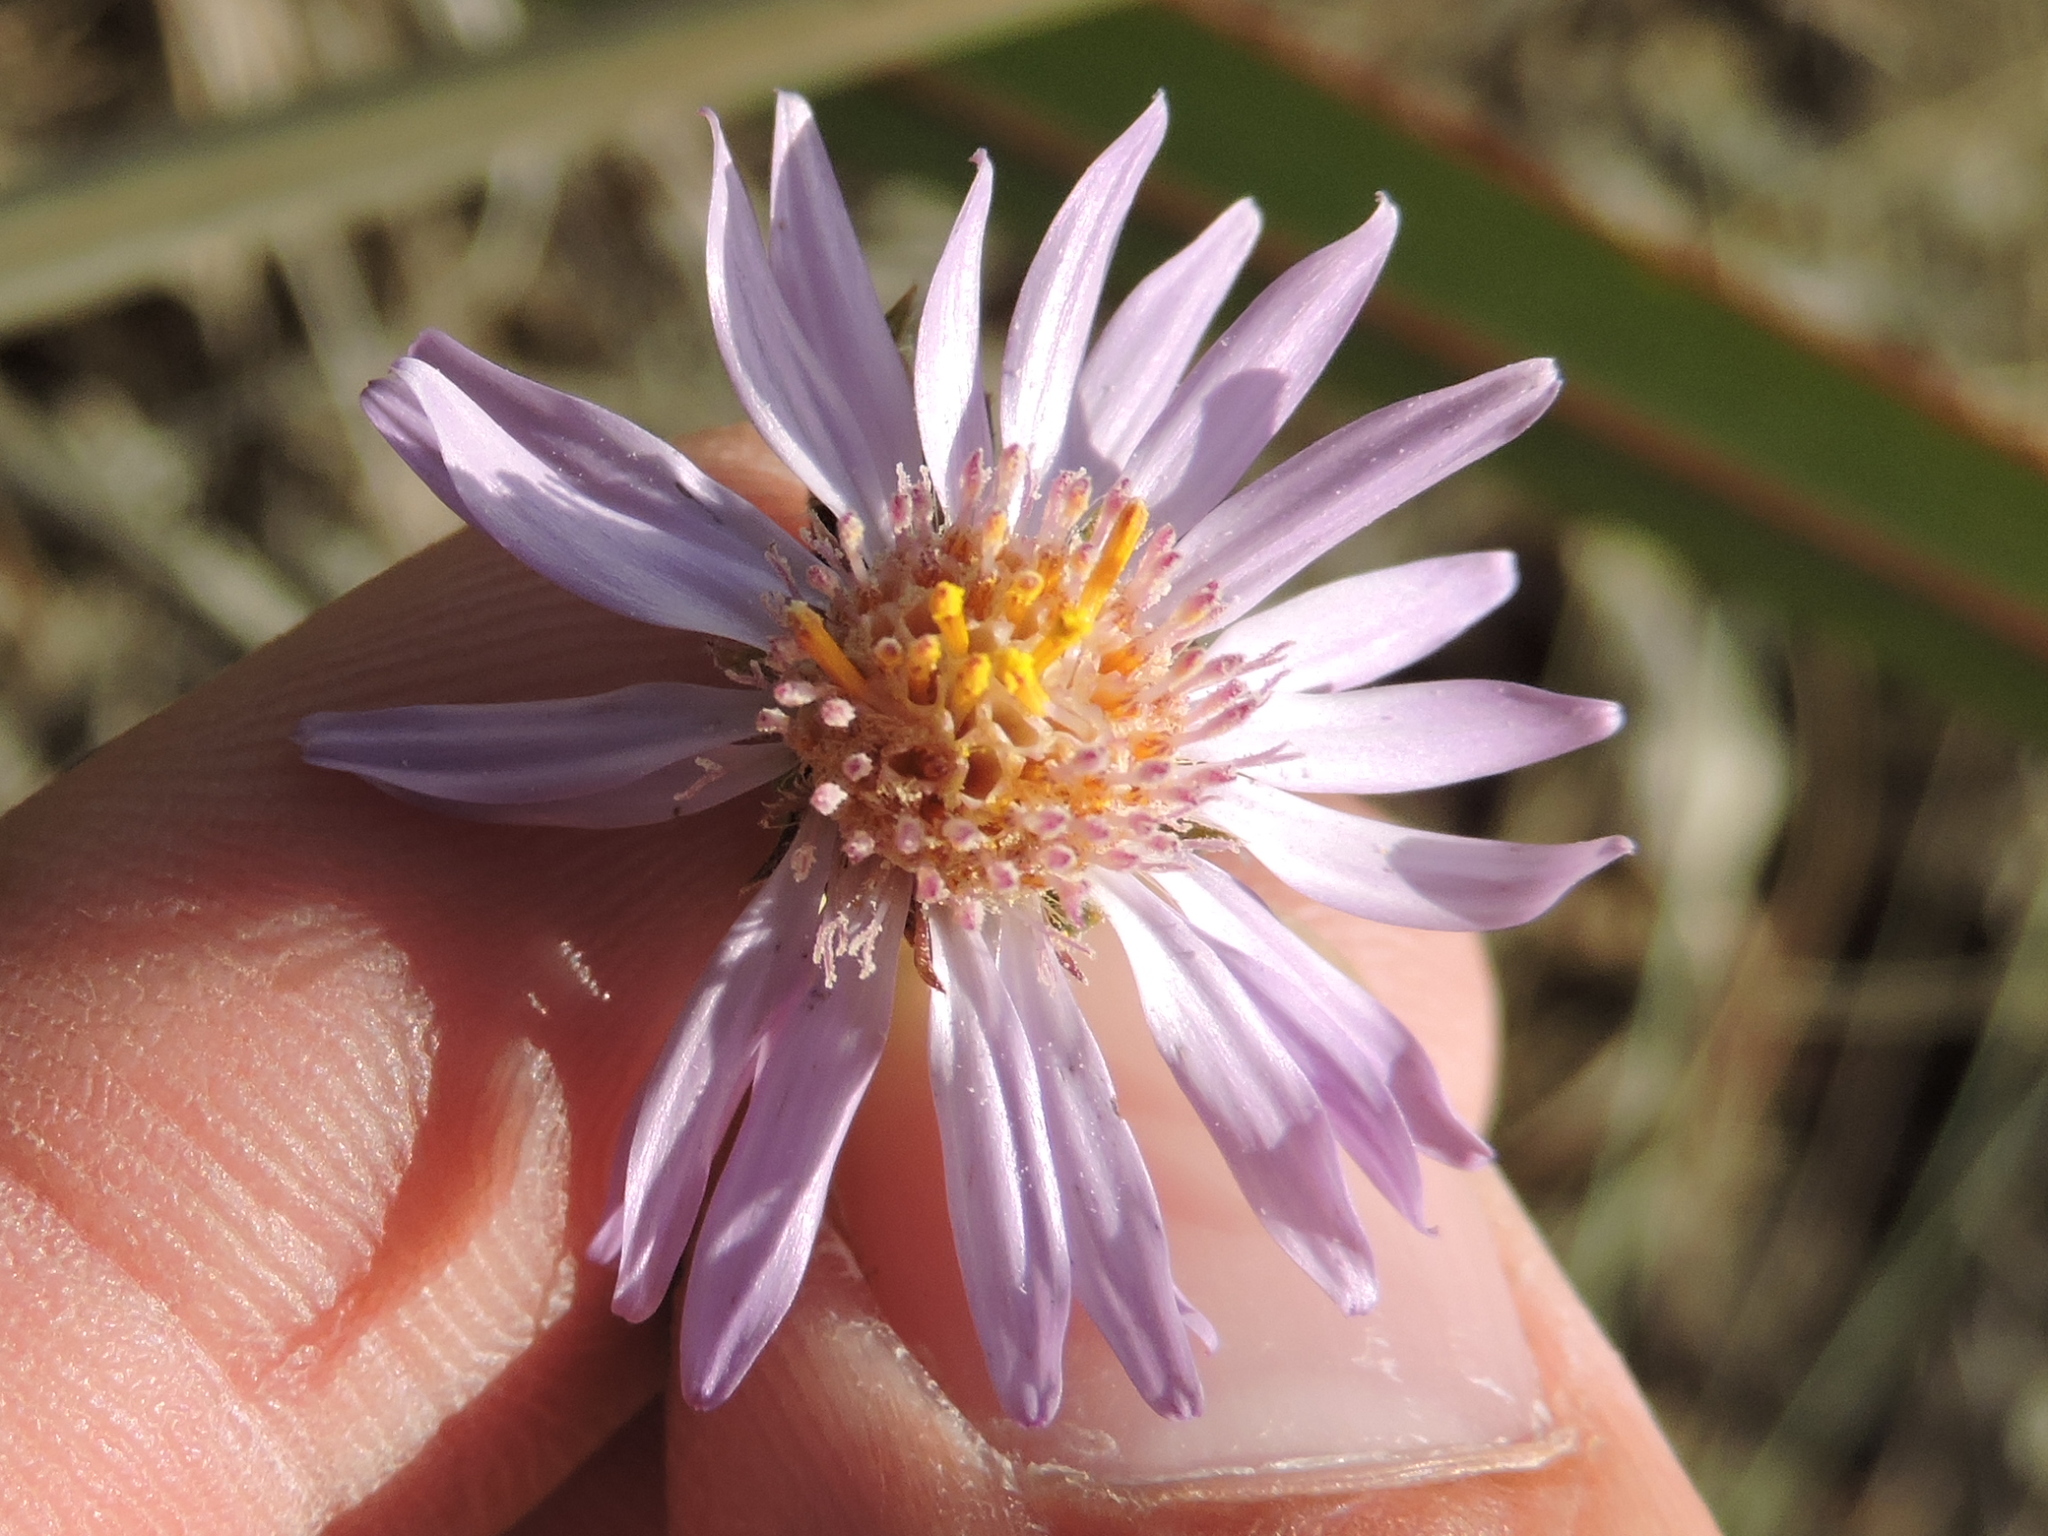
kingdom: Plantae
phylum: Tracheophyta
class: Magnoliopsida
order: Asterales
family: Asteraceae
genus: Symphyotrichum
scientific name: Symphyotrichum pratense
